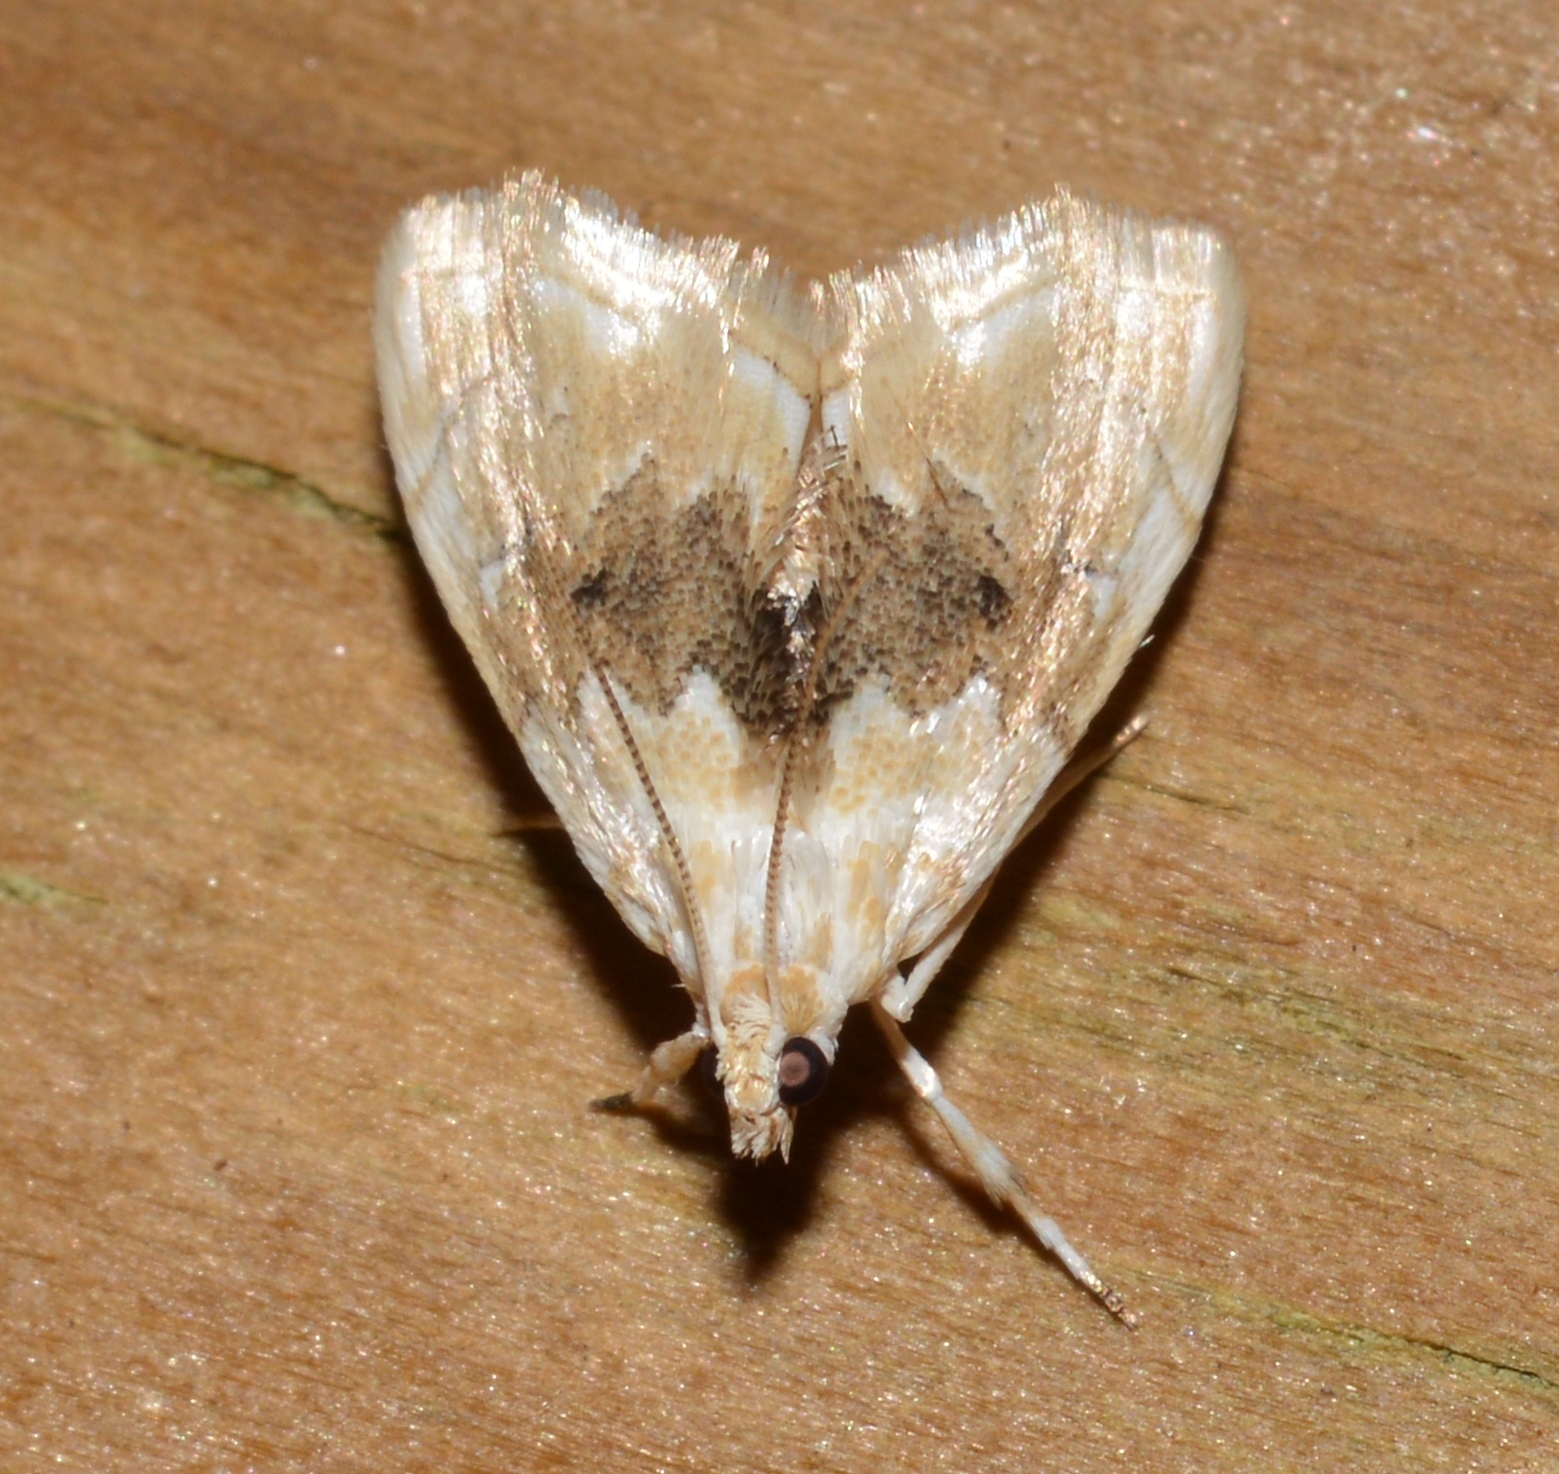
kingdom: Animalia
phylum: Arthropoda
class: Insecta
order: Lepidoptera
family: Crambidae
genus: Lipocosma
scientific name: Lipocosma sicalis
